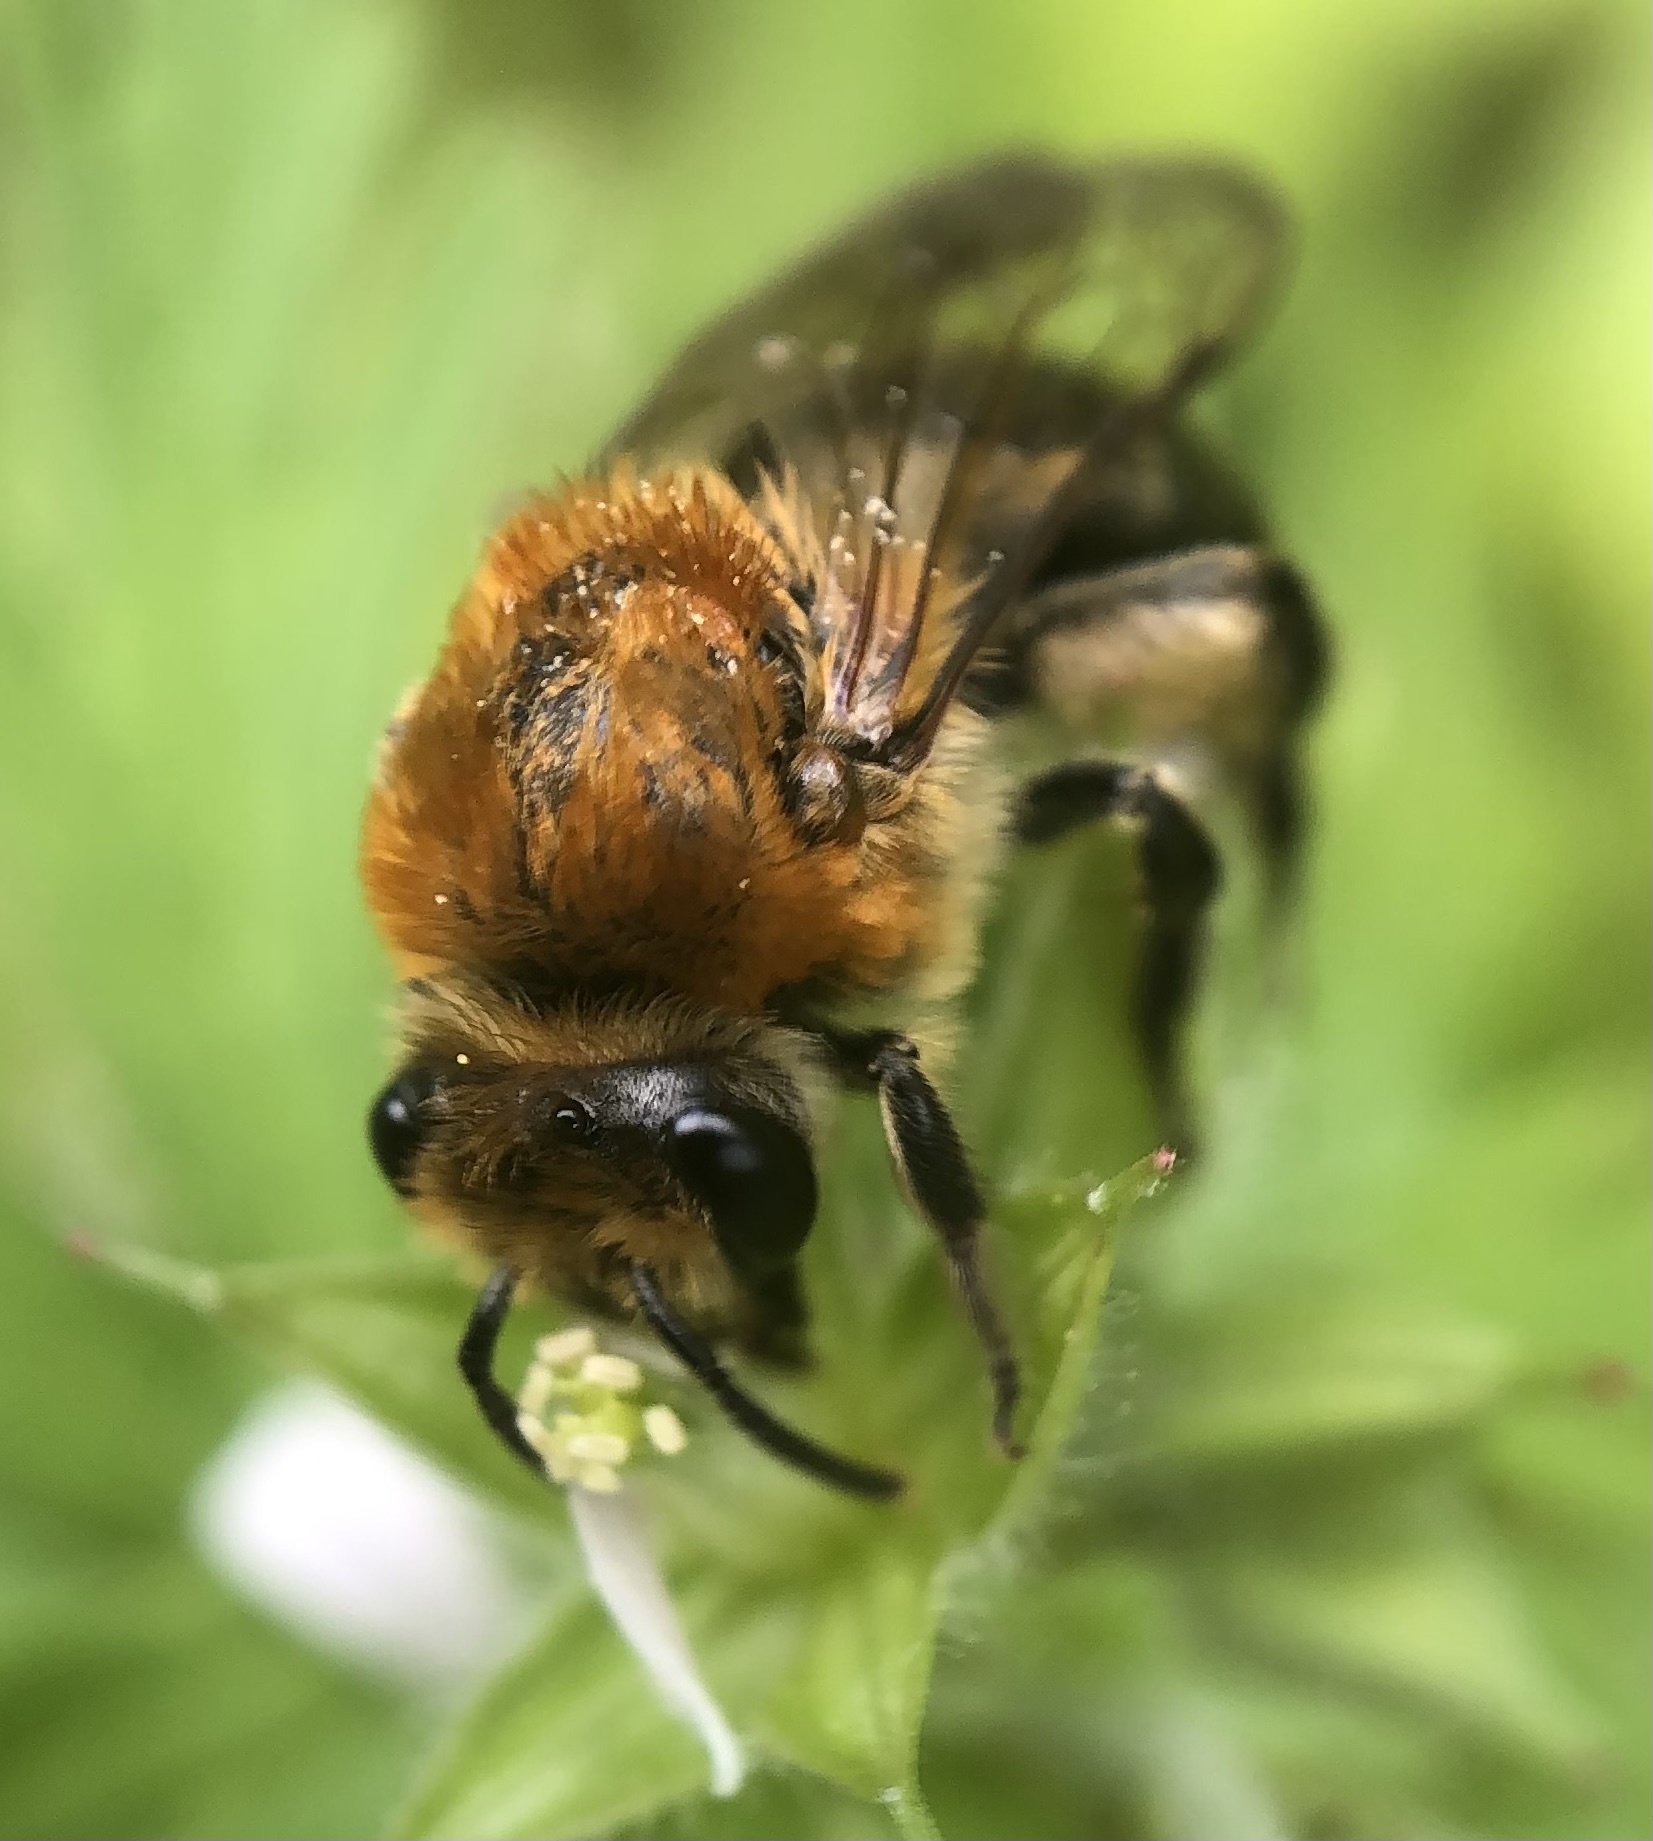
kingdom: Animalia
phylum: Arthropoda
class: Insecta
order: Hymenoptera
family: Colletidae
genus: Colletes
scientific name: Colletes thoracicus
